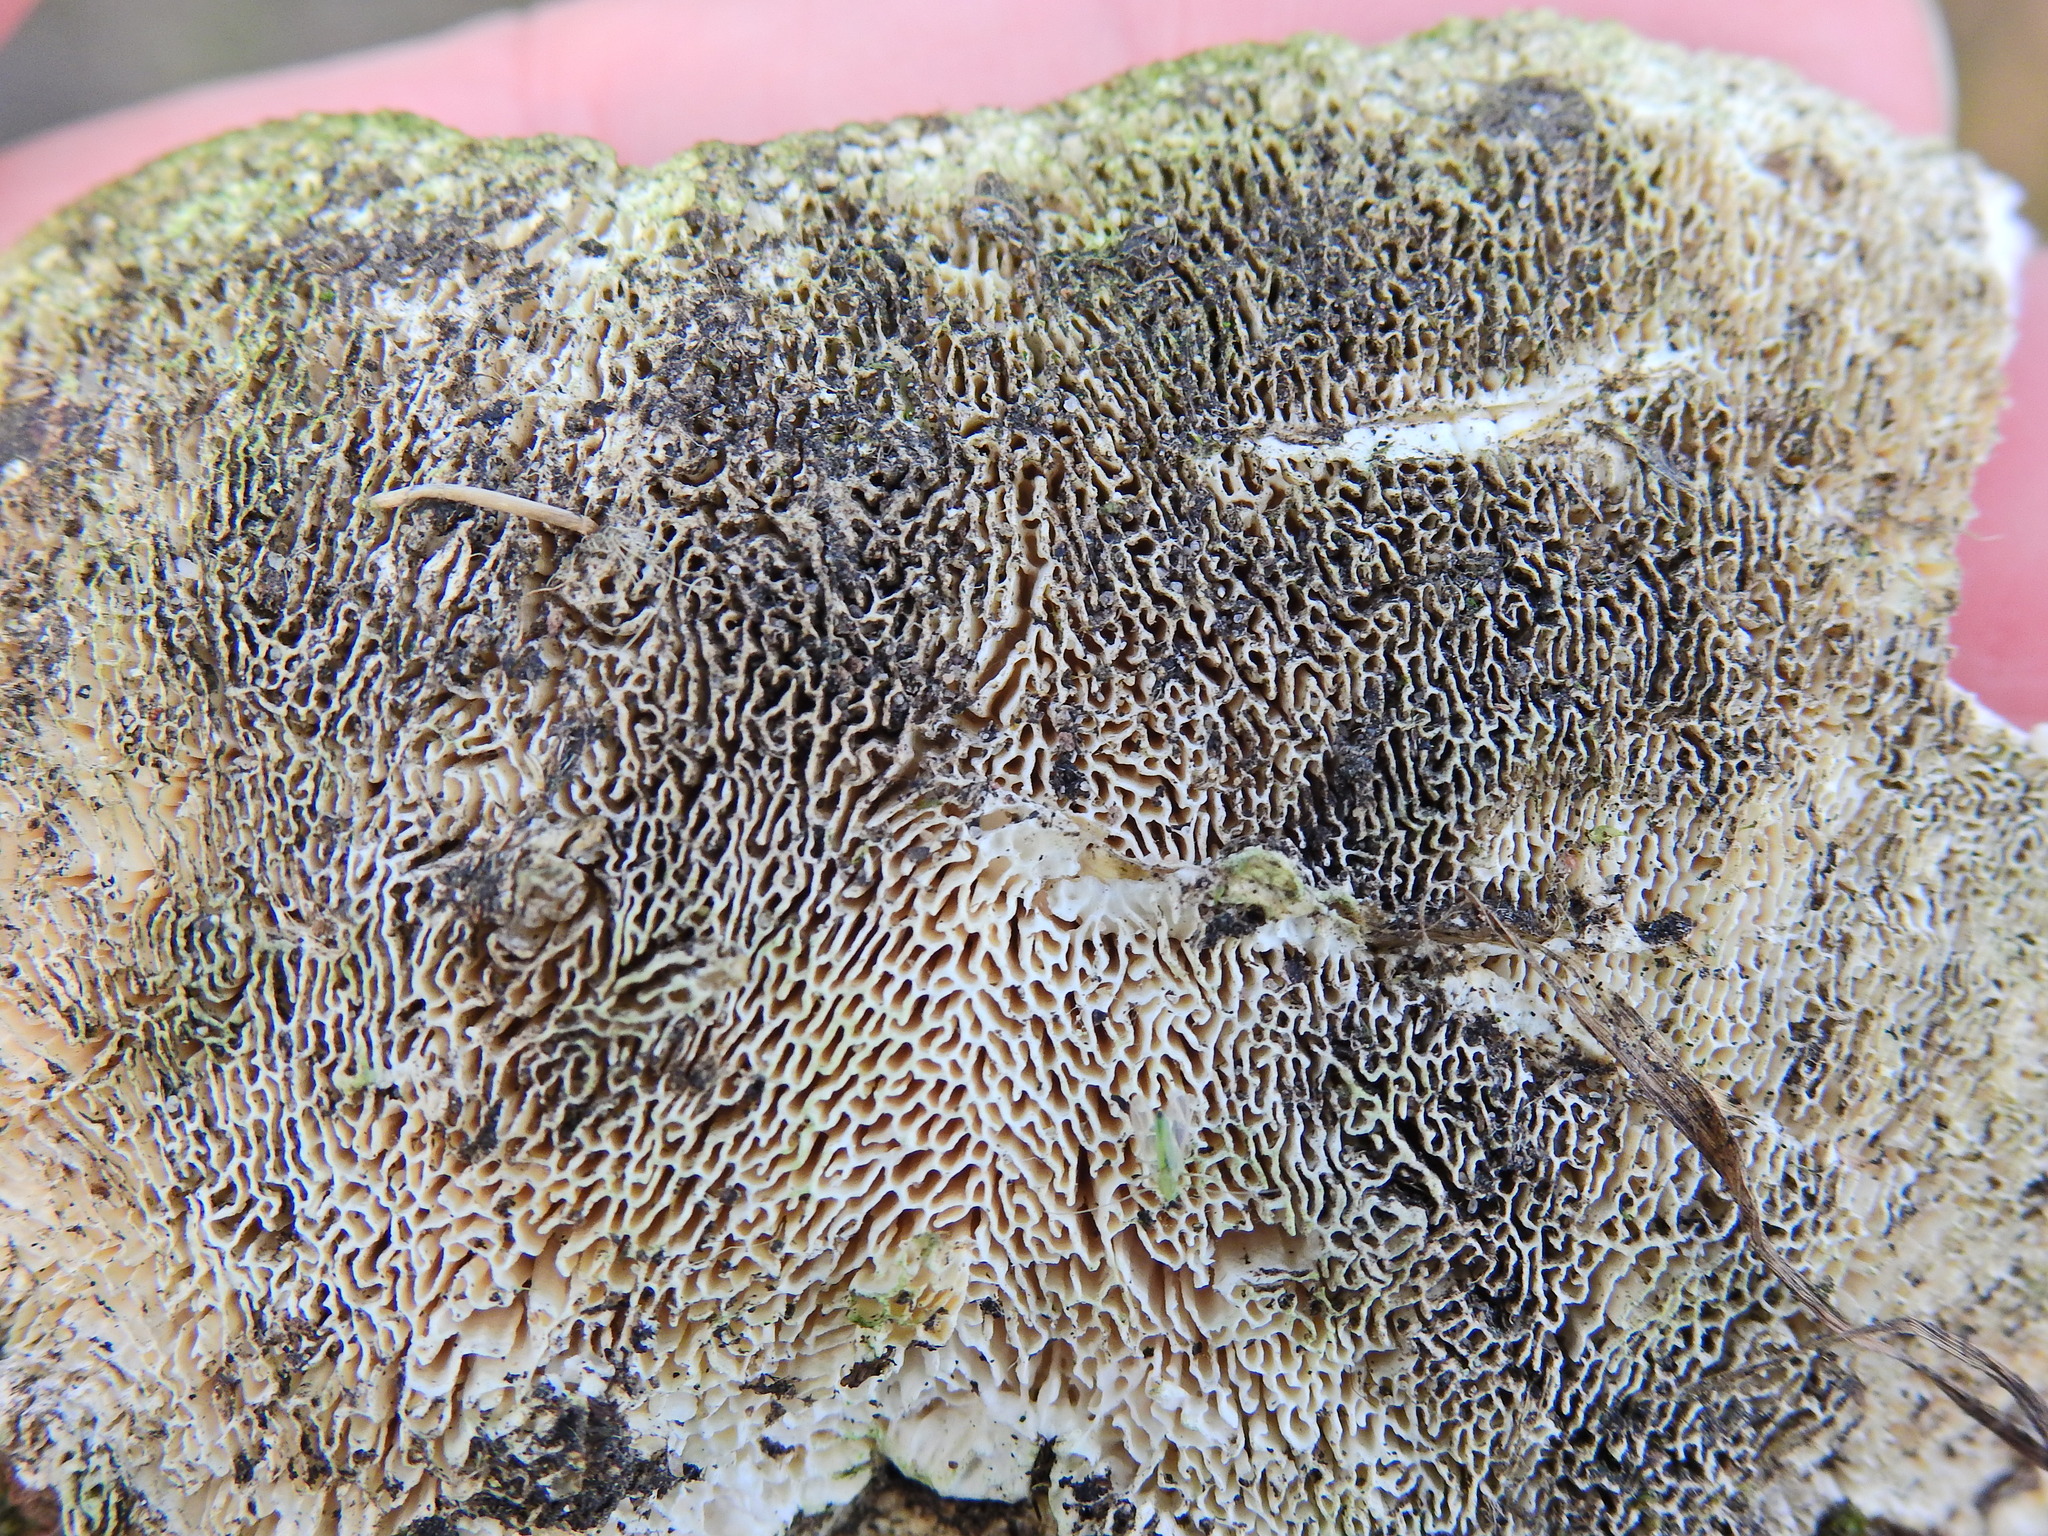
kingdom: Fungi
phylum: Basidiomycota
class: Agaricomycetes
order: Polyporales
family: Polyporaceae
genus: Trametes
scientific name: Trametes gibbosa
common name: Lumpy bracket
